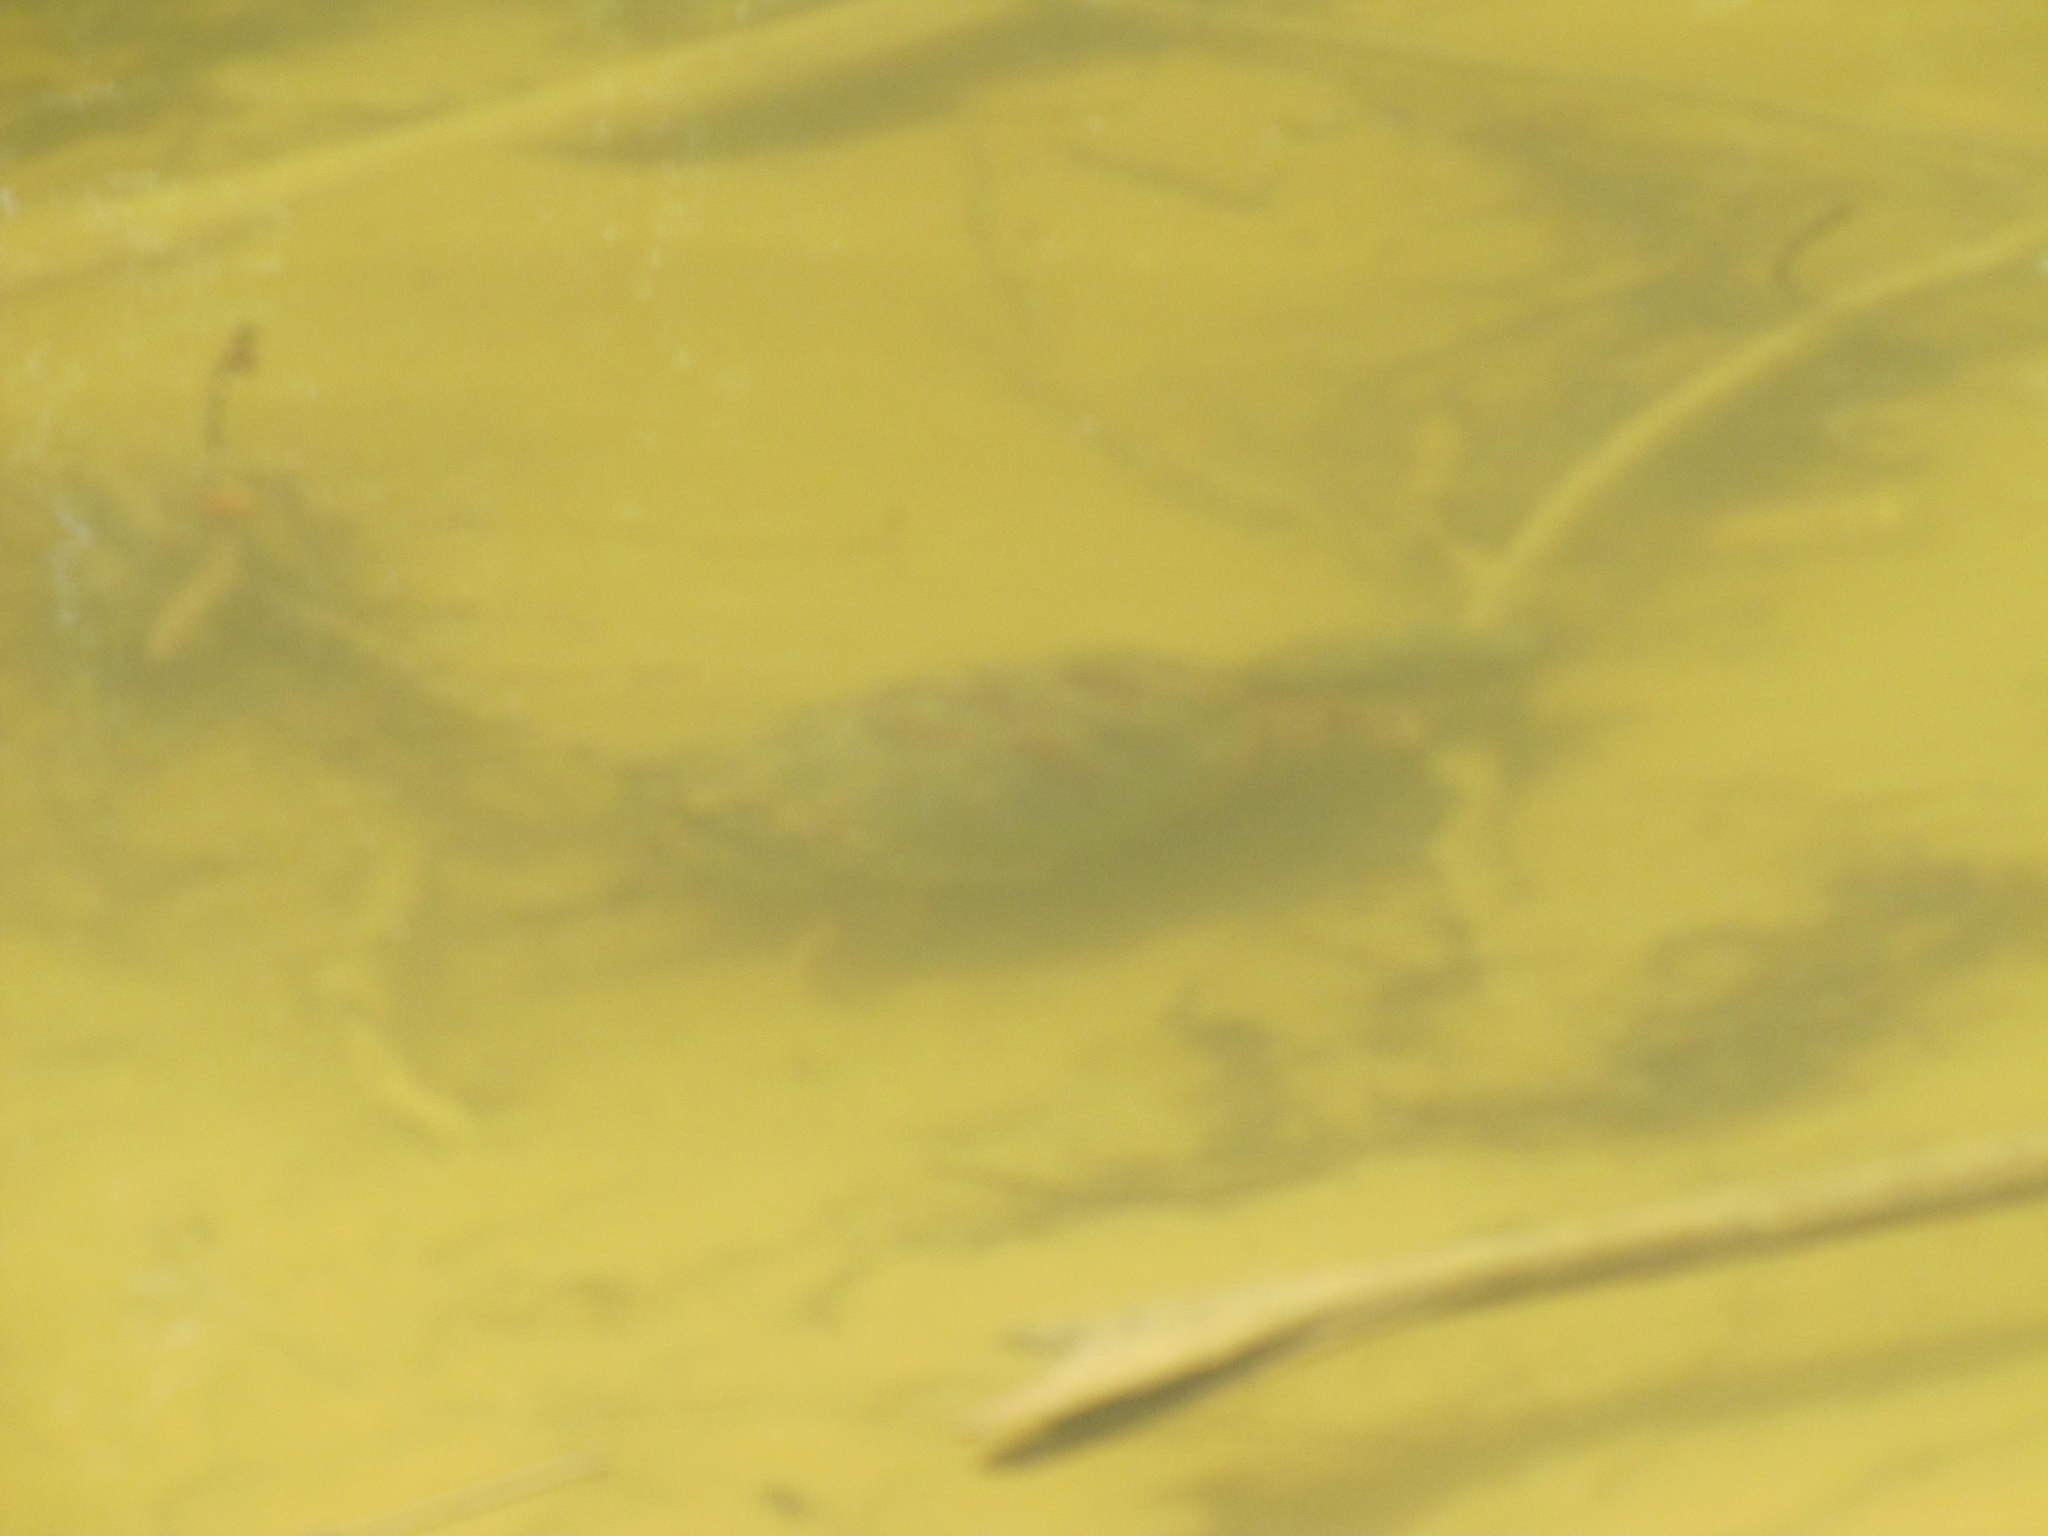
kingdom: Animalia
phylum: Chordata
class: Testudines
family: Chelydridae
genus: Chelydra
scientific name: Chelydra serpentina
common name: Common snapping turtle
